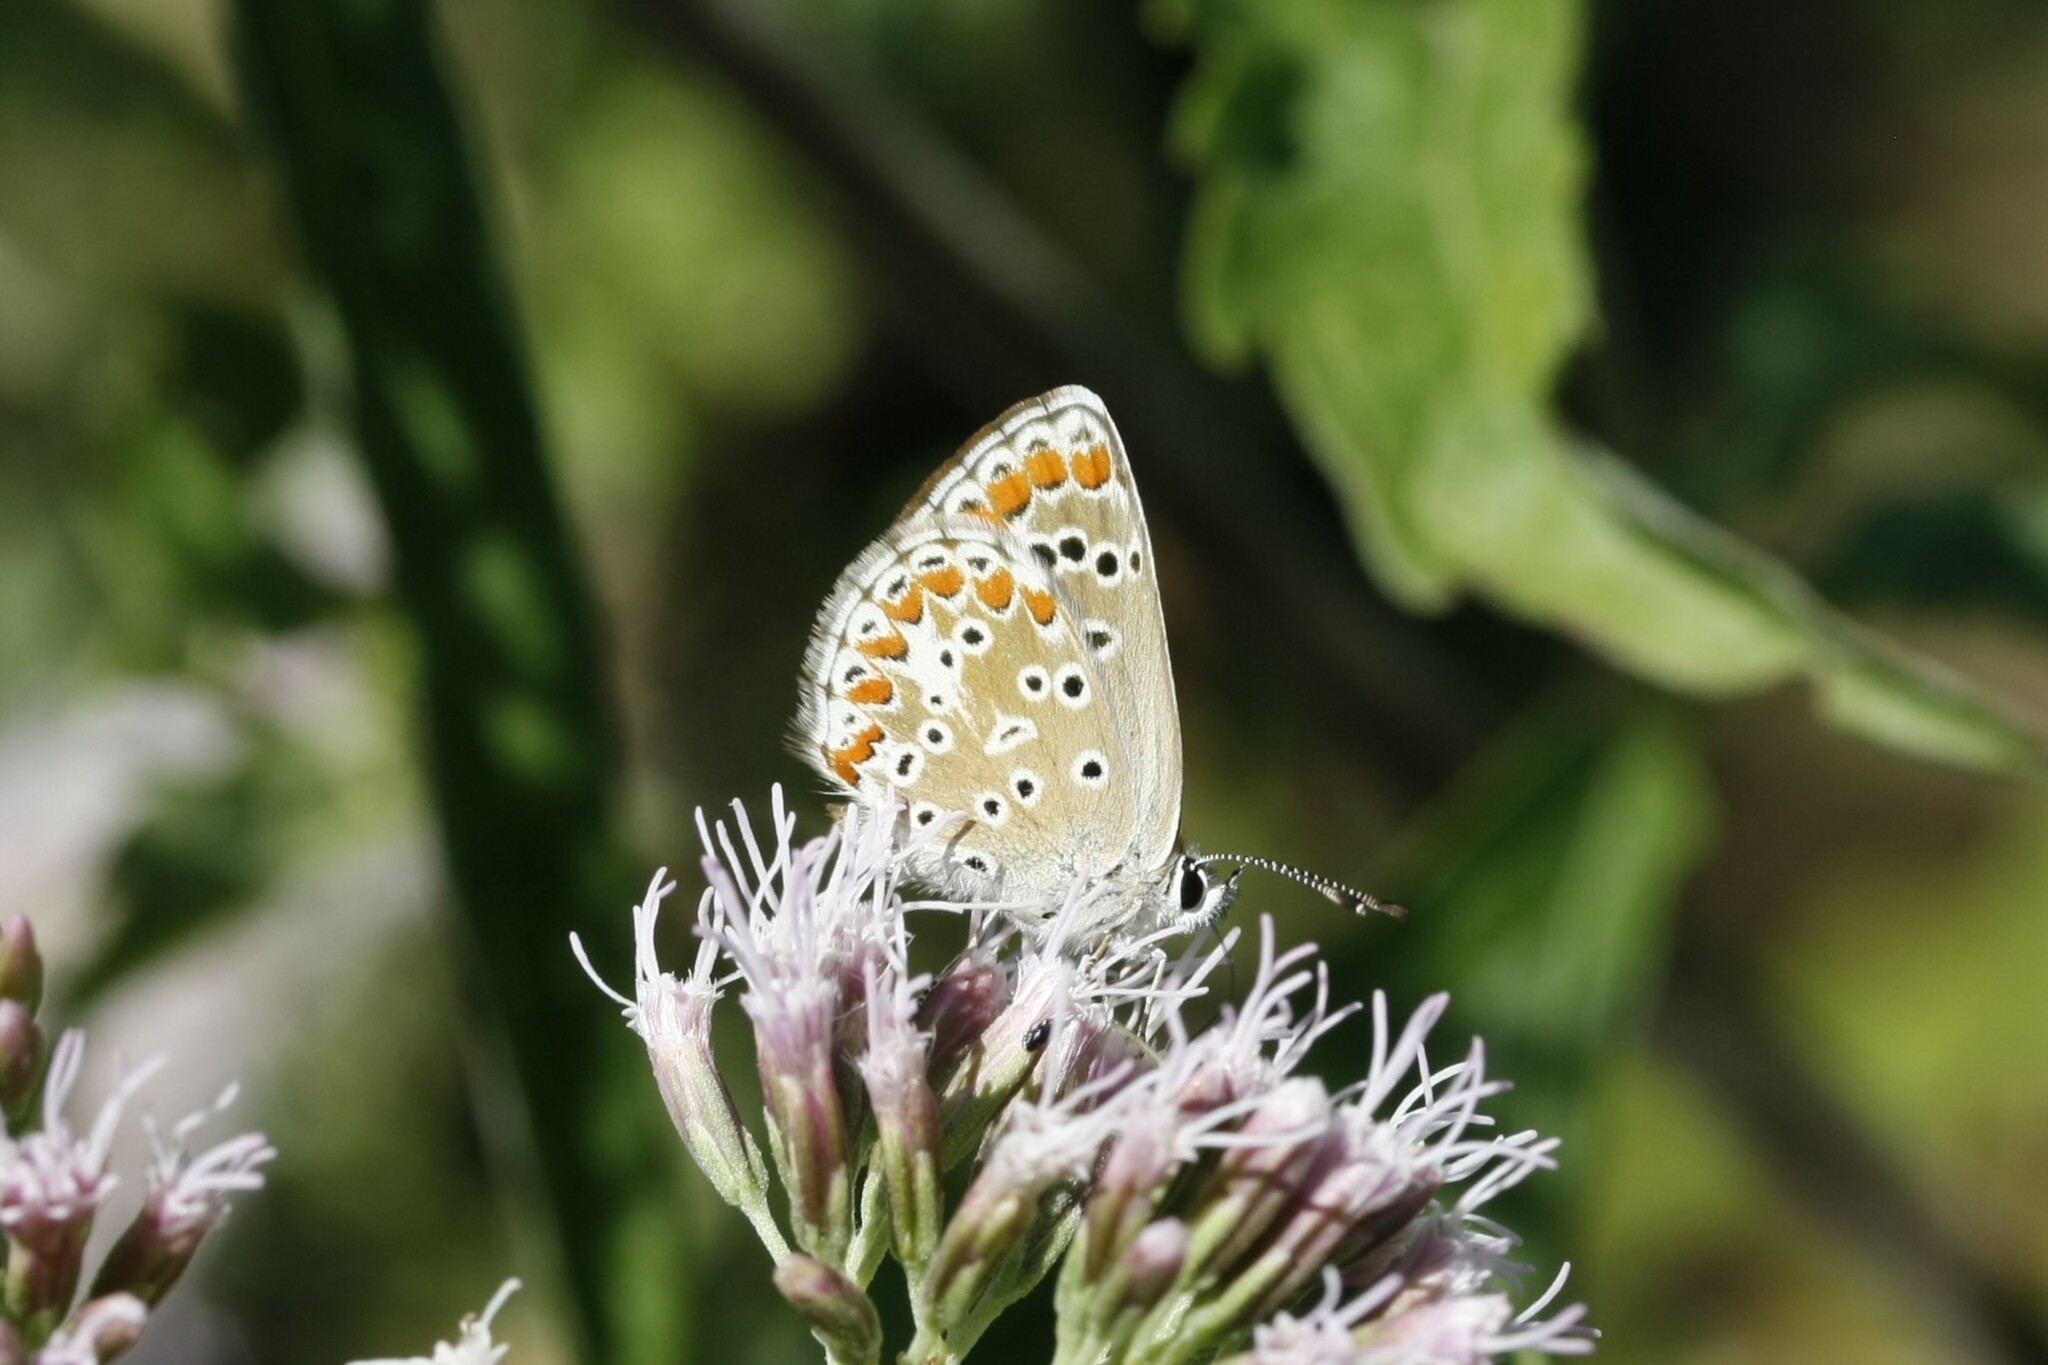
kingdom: Animalia
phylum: Arthropoda
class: Insecta
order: Lepidoptera
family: Lycaenidae
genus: Aricia
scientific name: Aricia agestis
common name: Brown argus
